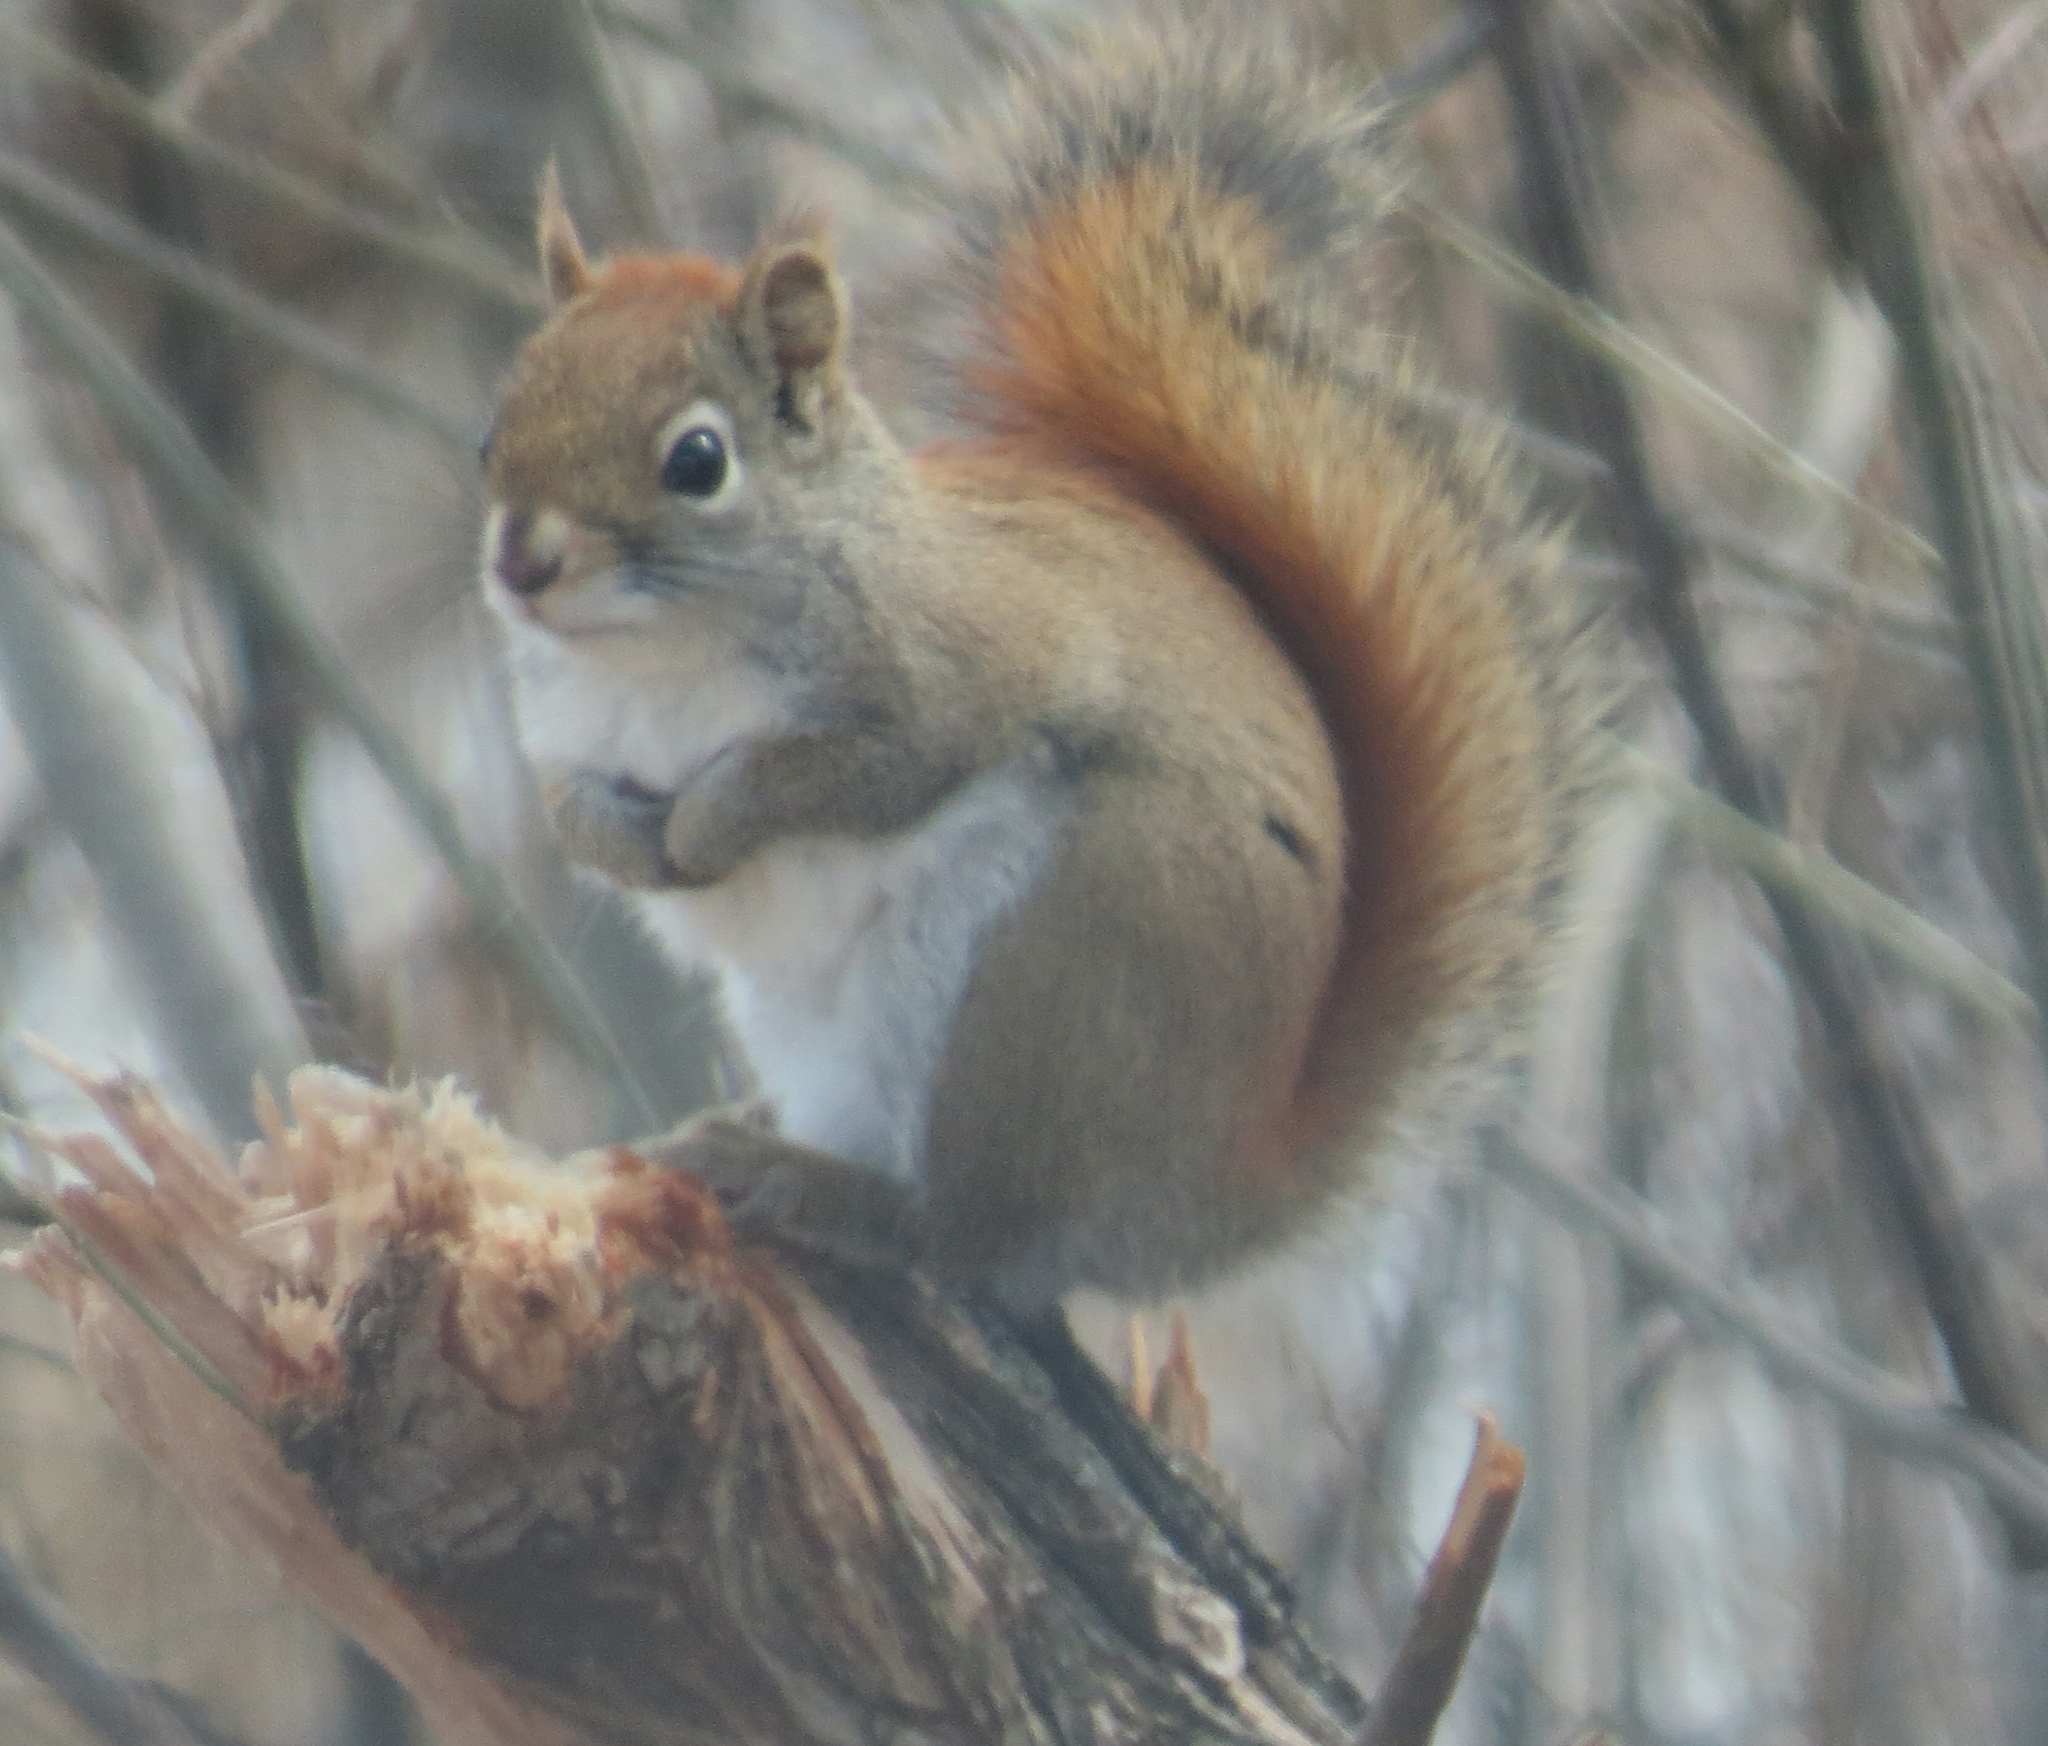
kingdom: Animalia
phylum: Chordata
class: Mammalia
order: Rodentia
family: Sciuridae
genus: Tamiasciurus
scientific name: Tamiasciurus hudsonicus
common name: Red squirrel
